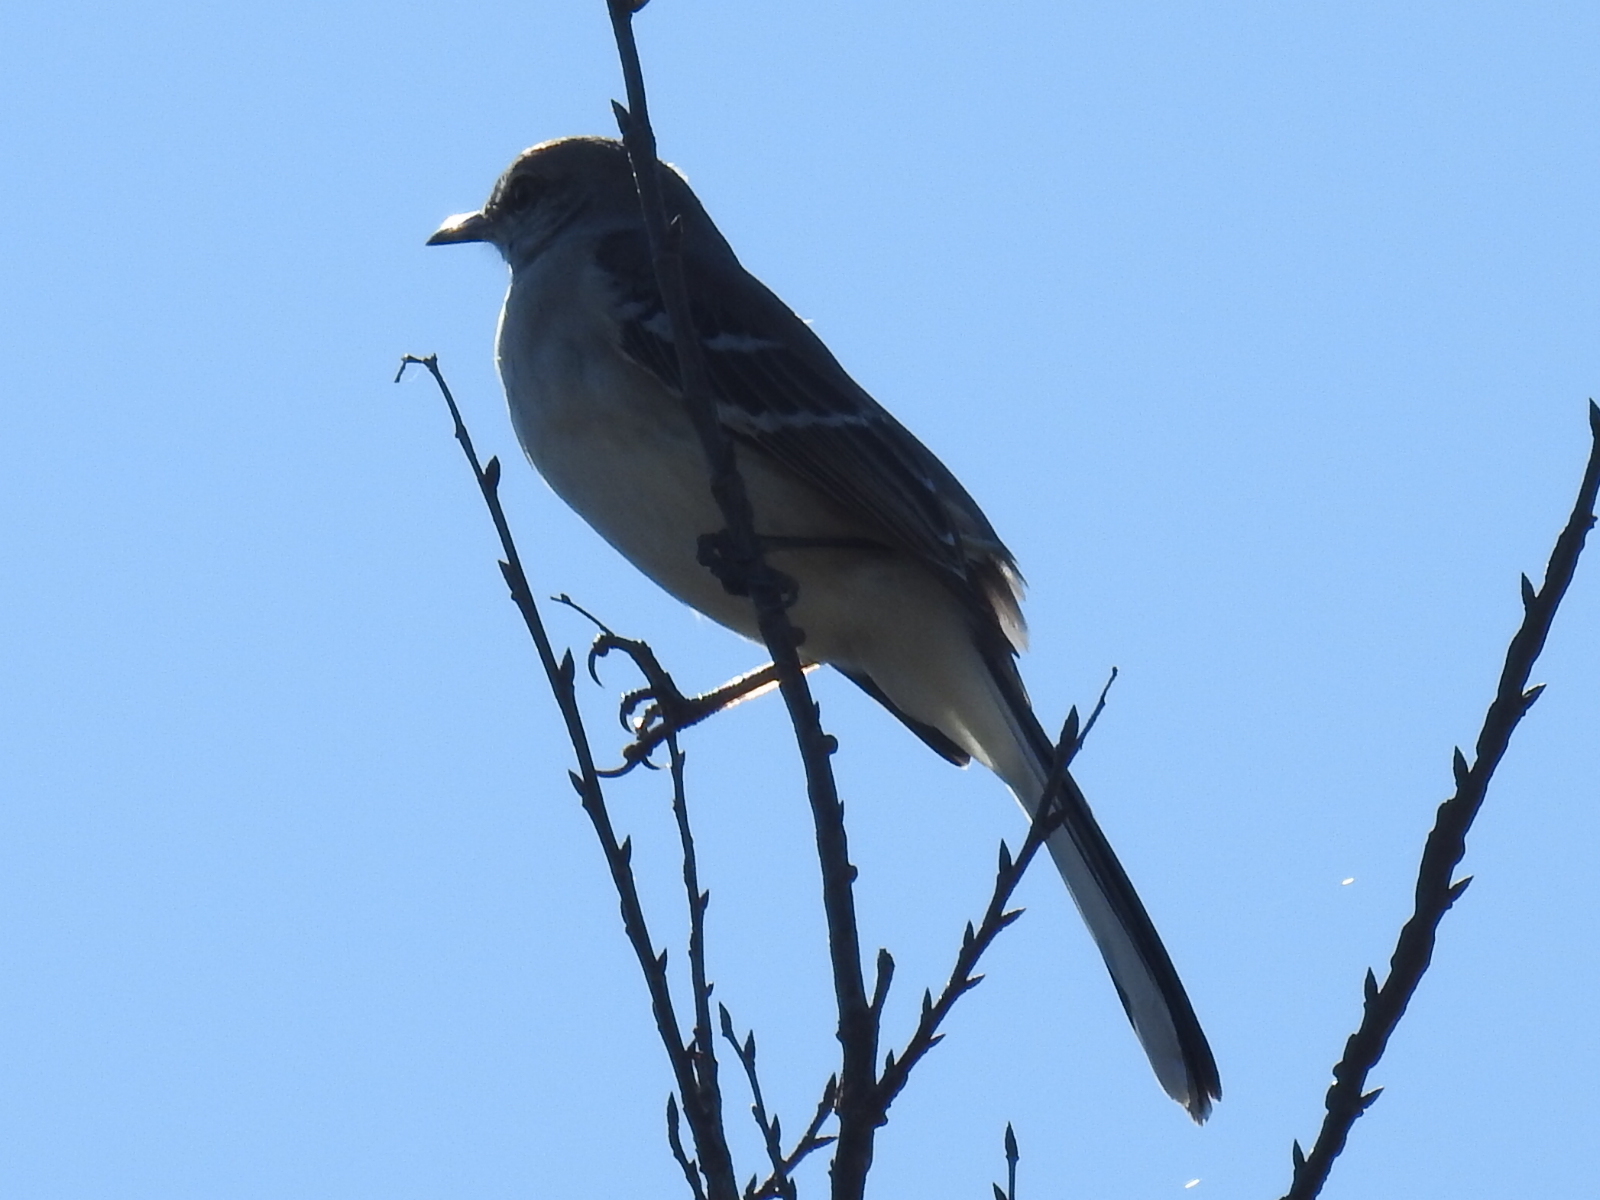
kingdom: Animalia
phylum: Chordata
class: Aves
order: Passeriformes
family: Mimidae
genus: Mimus
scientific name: Mimus polyglottos
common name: Northern mockingbird
